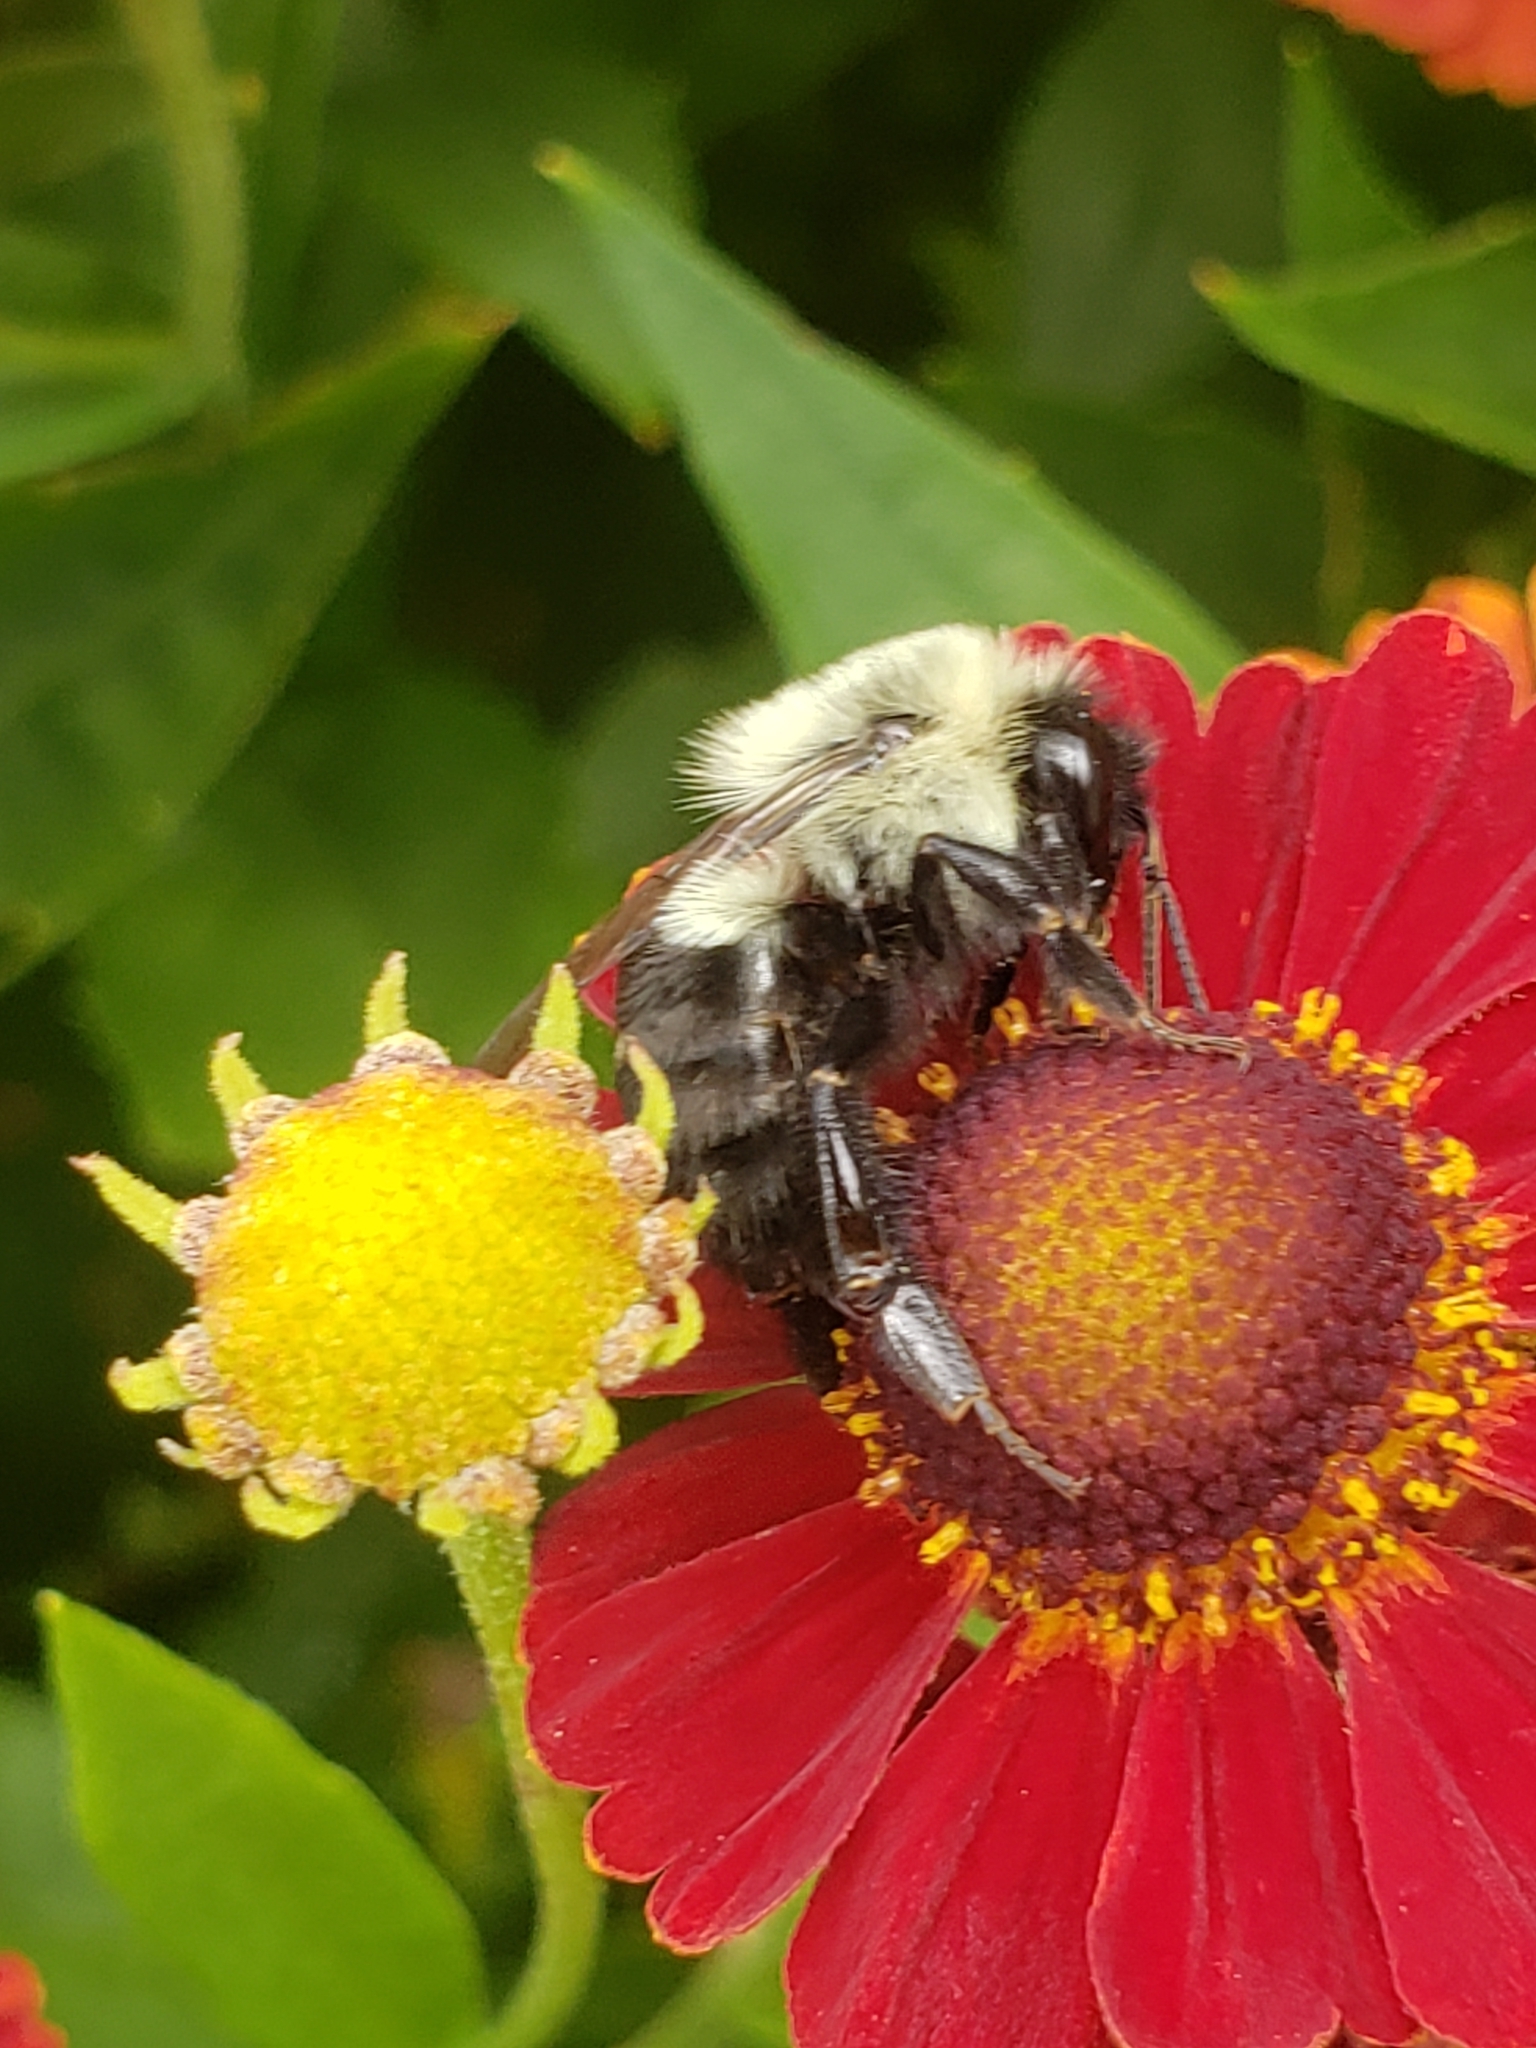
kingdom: Animalia
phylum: Arthropoda
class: Insecta
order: Hymenoptera
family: Apidae
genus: Bombus
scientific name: Bombus impatiens
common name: Common eastern bumble bee
